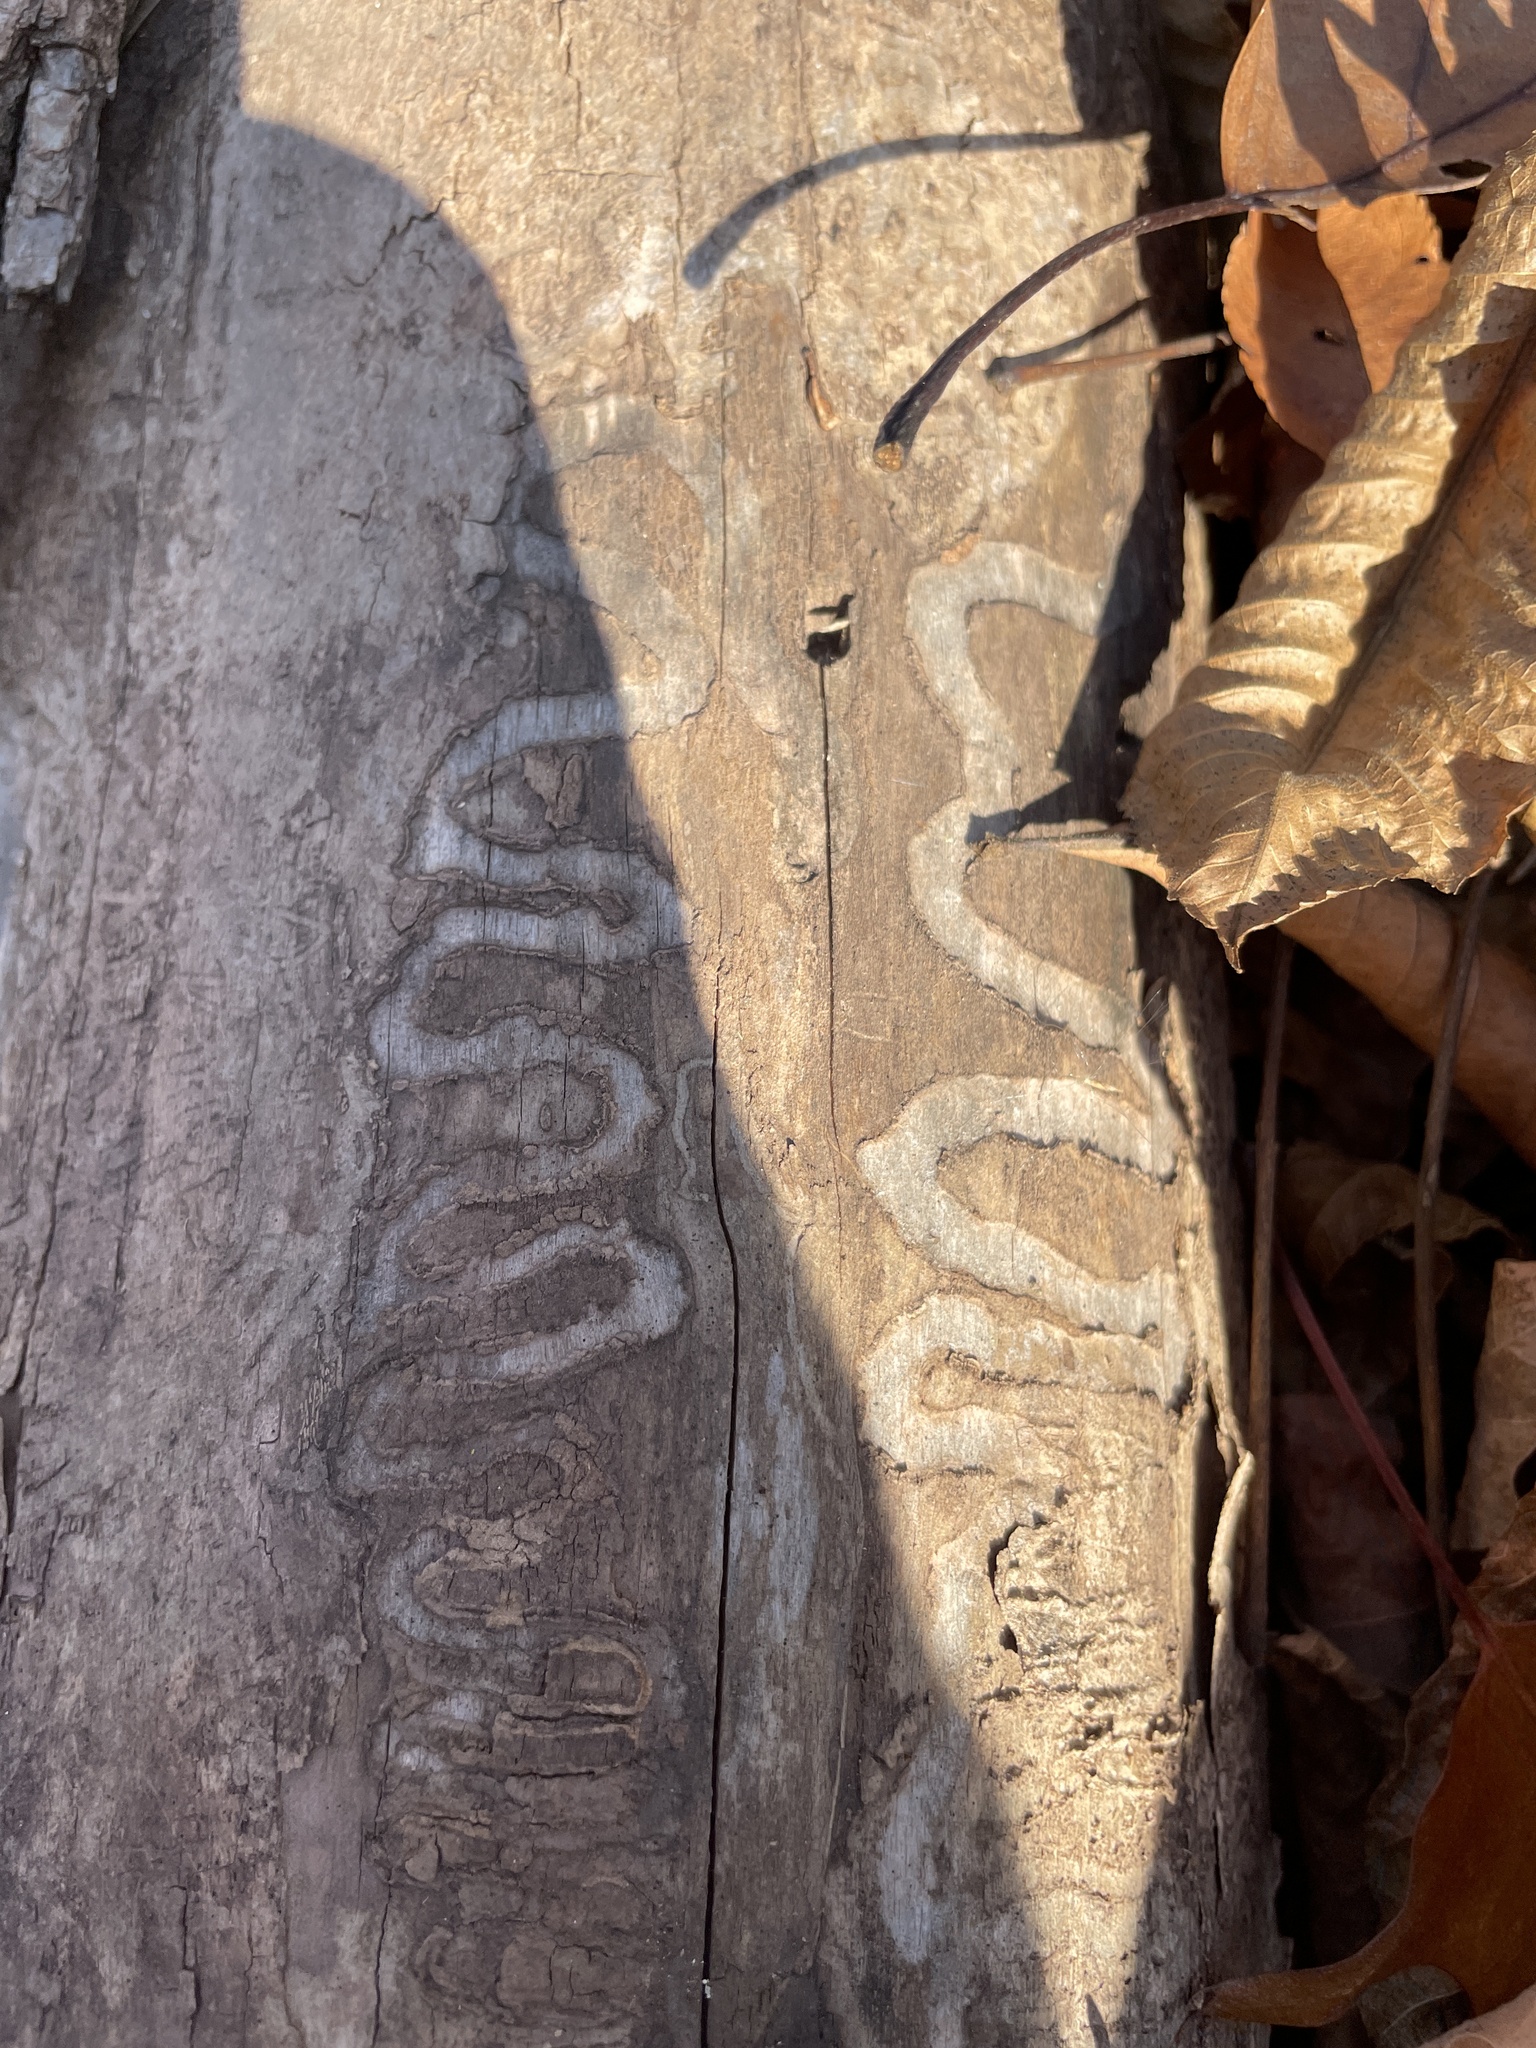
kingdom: Animalia
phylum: Arthropoda
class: Insecta
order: Coleoptera
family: Buprestidae
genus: Agrilus
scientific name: Agrilus planipennis
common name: Emerald ash borer
